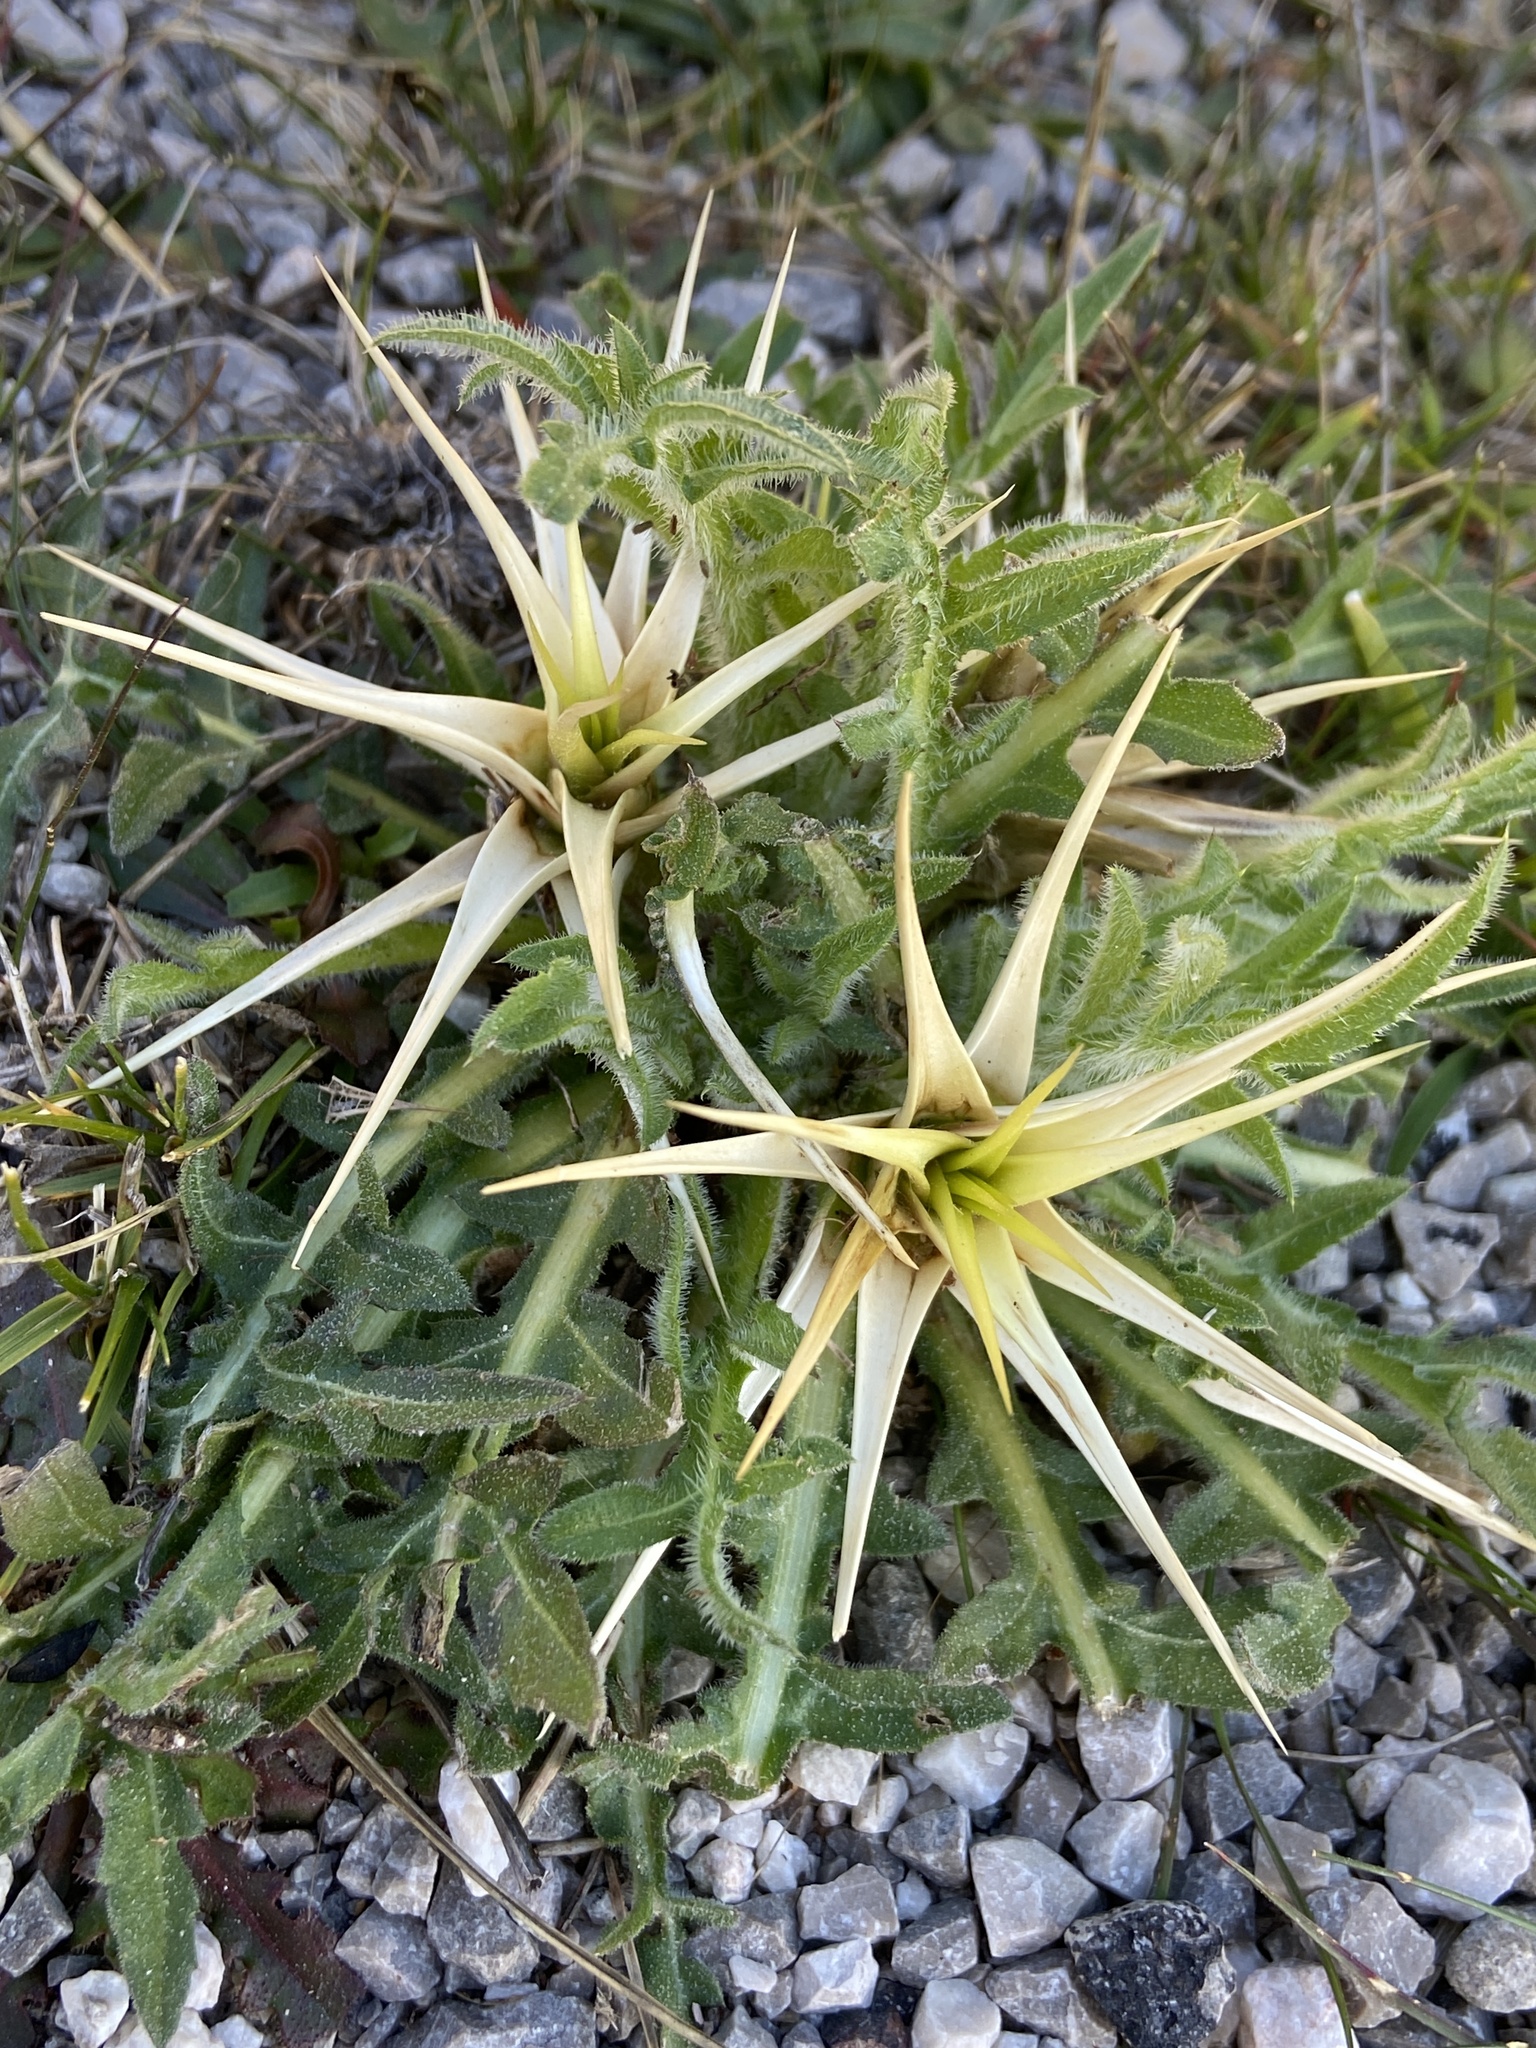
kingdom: Plantae
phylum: Tracheophyta
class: Magnoliopsida
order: Asterales
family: Asteraceae
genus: Centaurea
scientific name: Centaurea calcitrapa
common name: Red star-thistle
